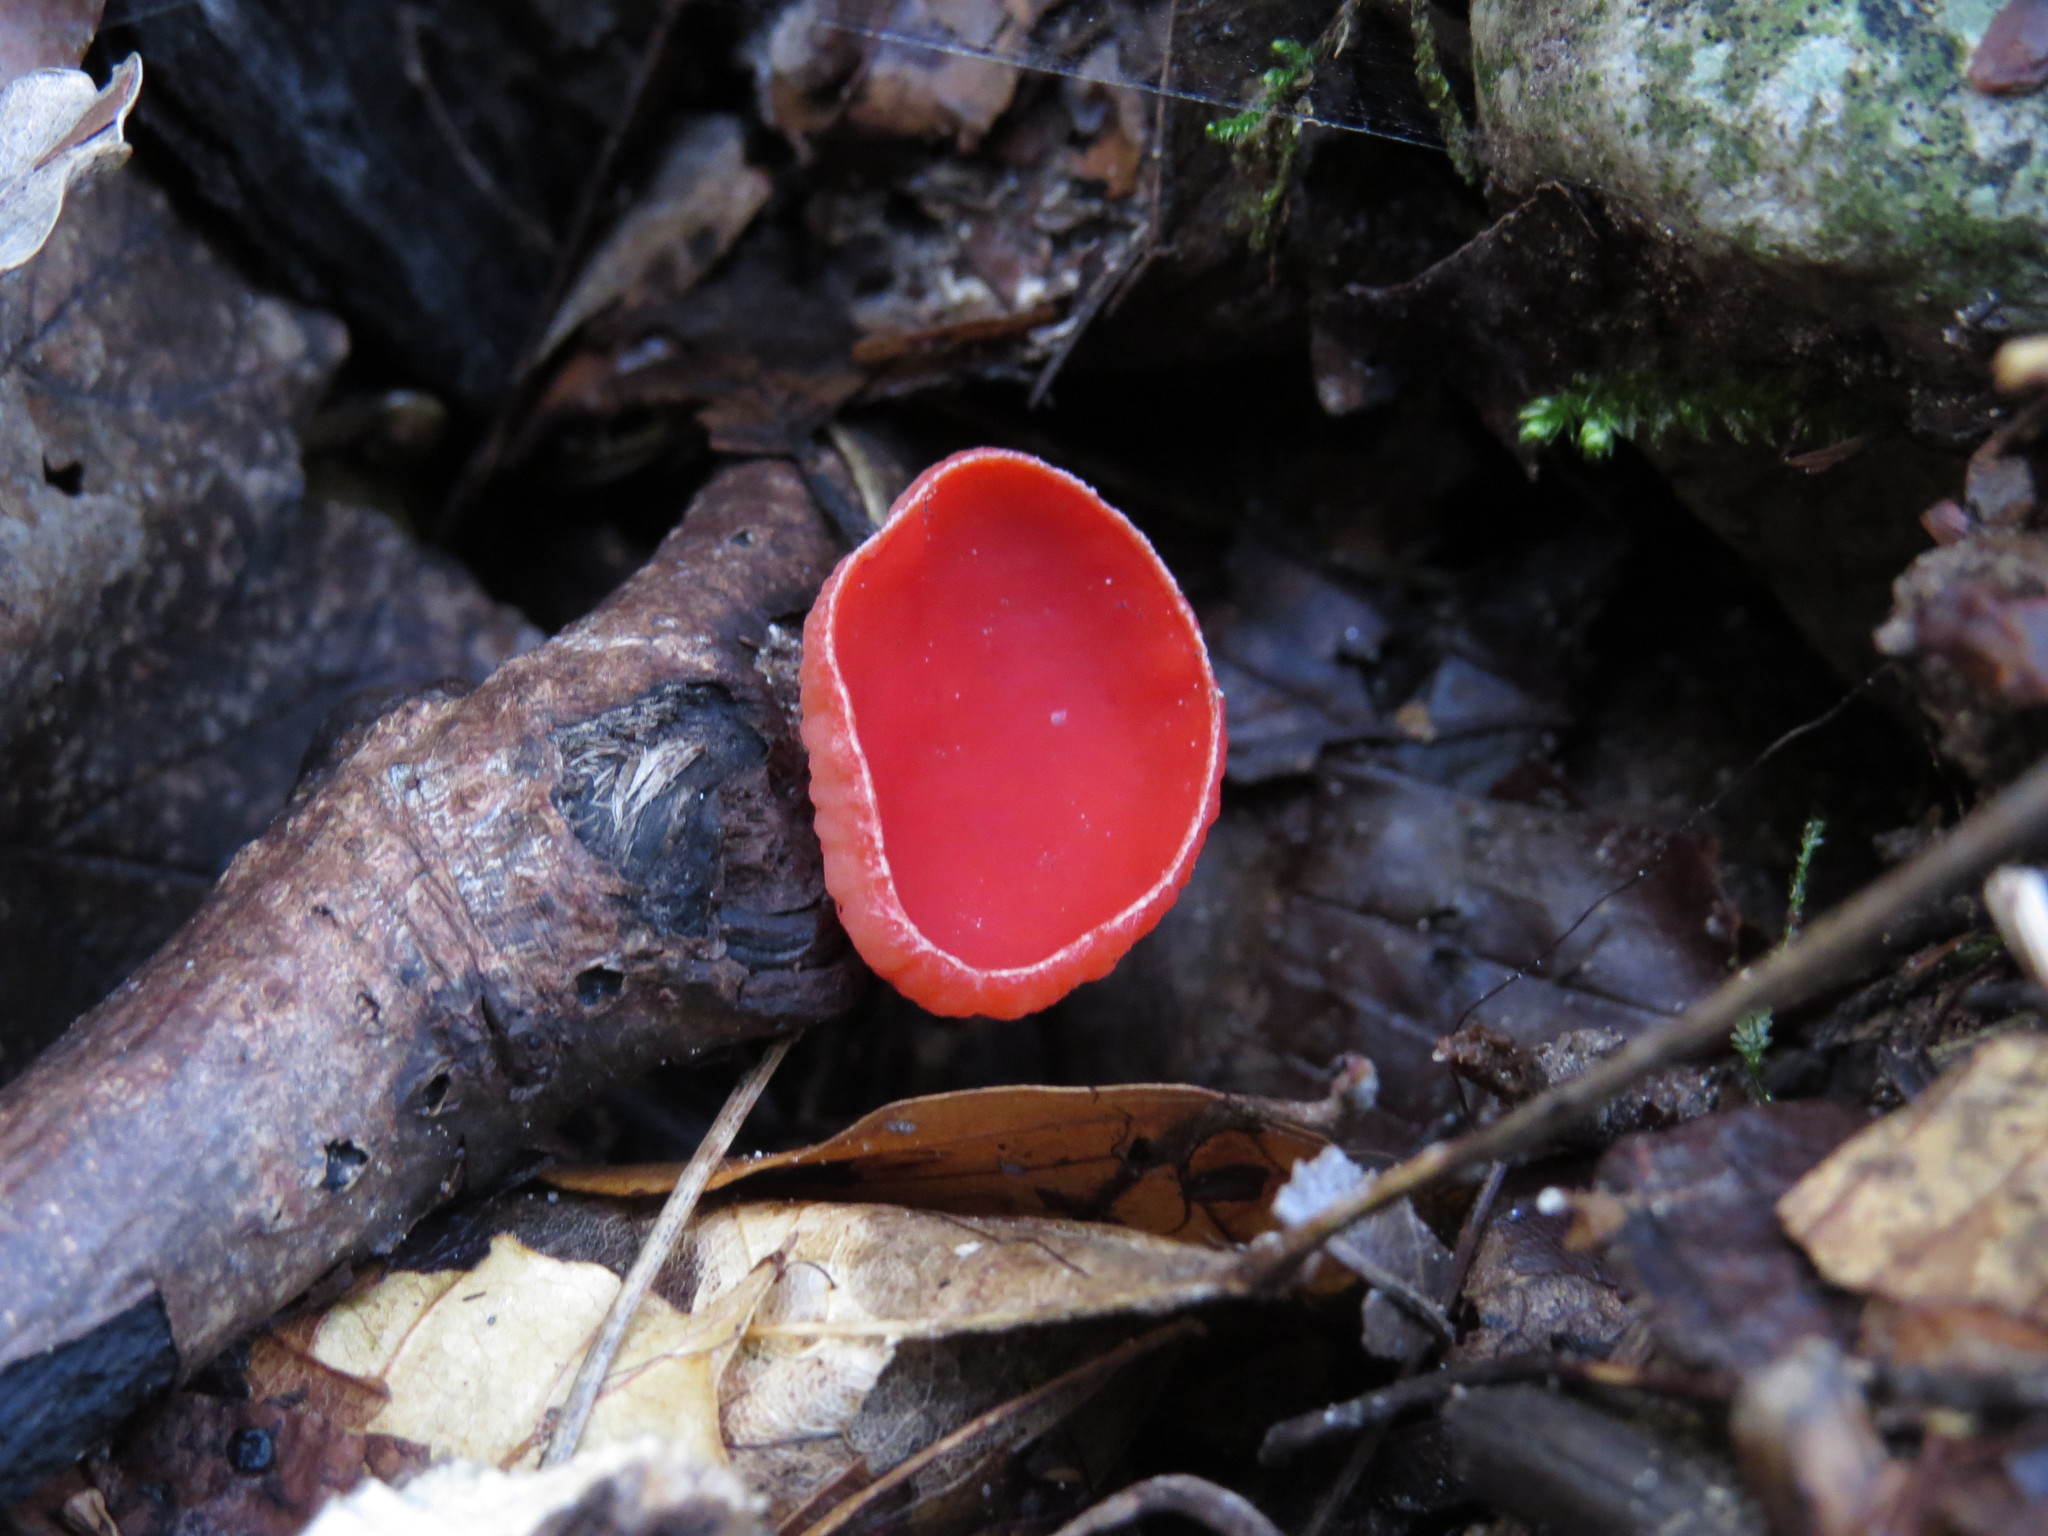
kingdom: Fungi
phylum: Ascomycota
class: Pezizomycetes
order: Pezizales
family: Sarcoscyphaceae
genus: Sarcoscypha
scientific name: Sarcoscypha
